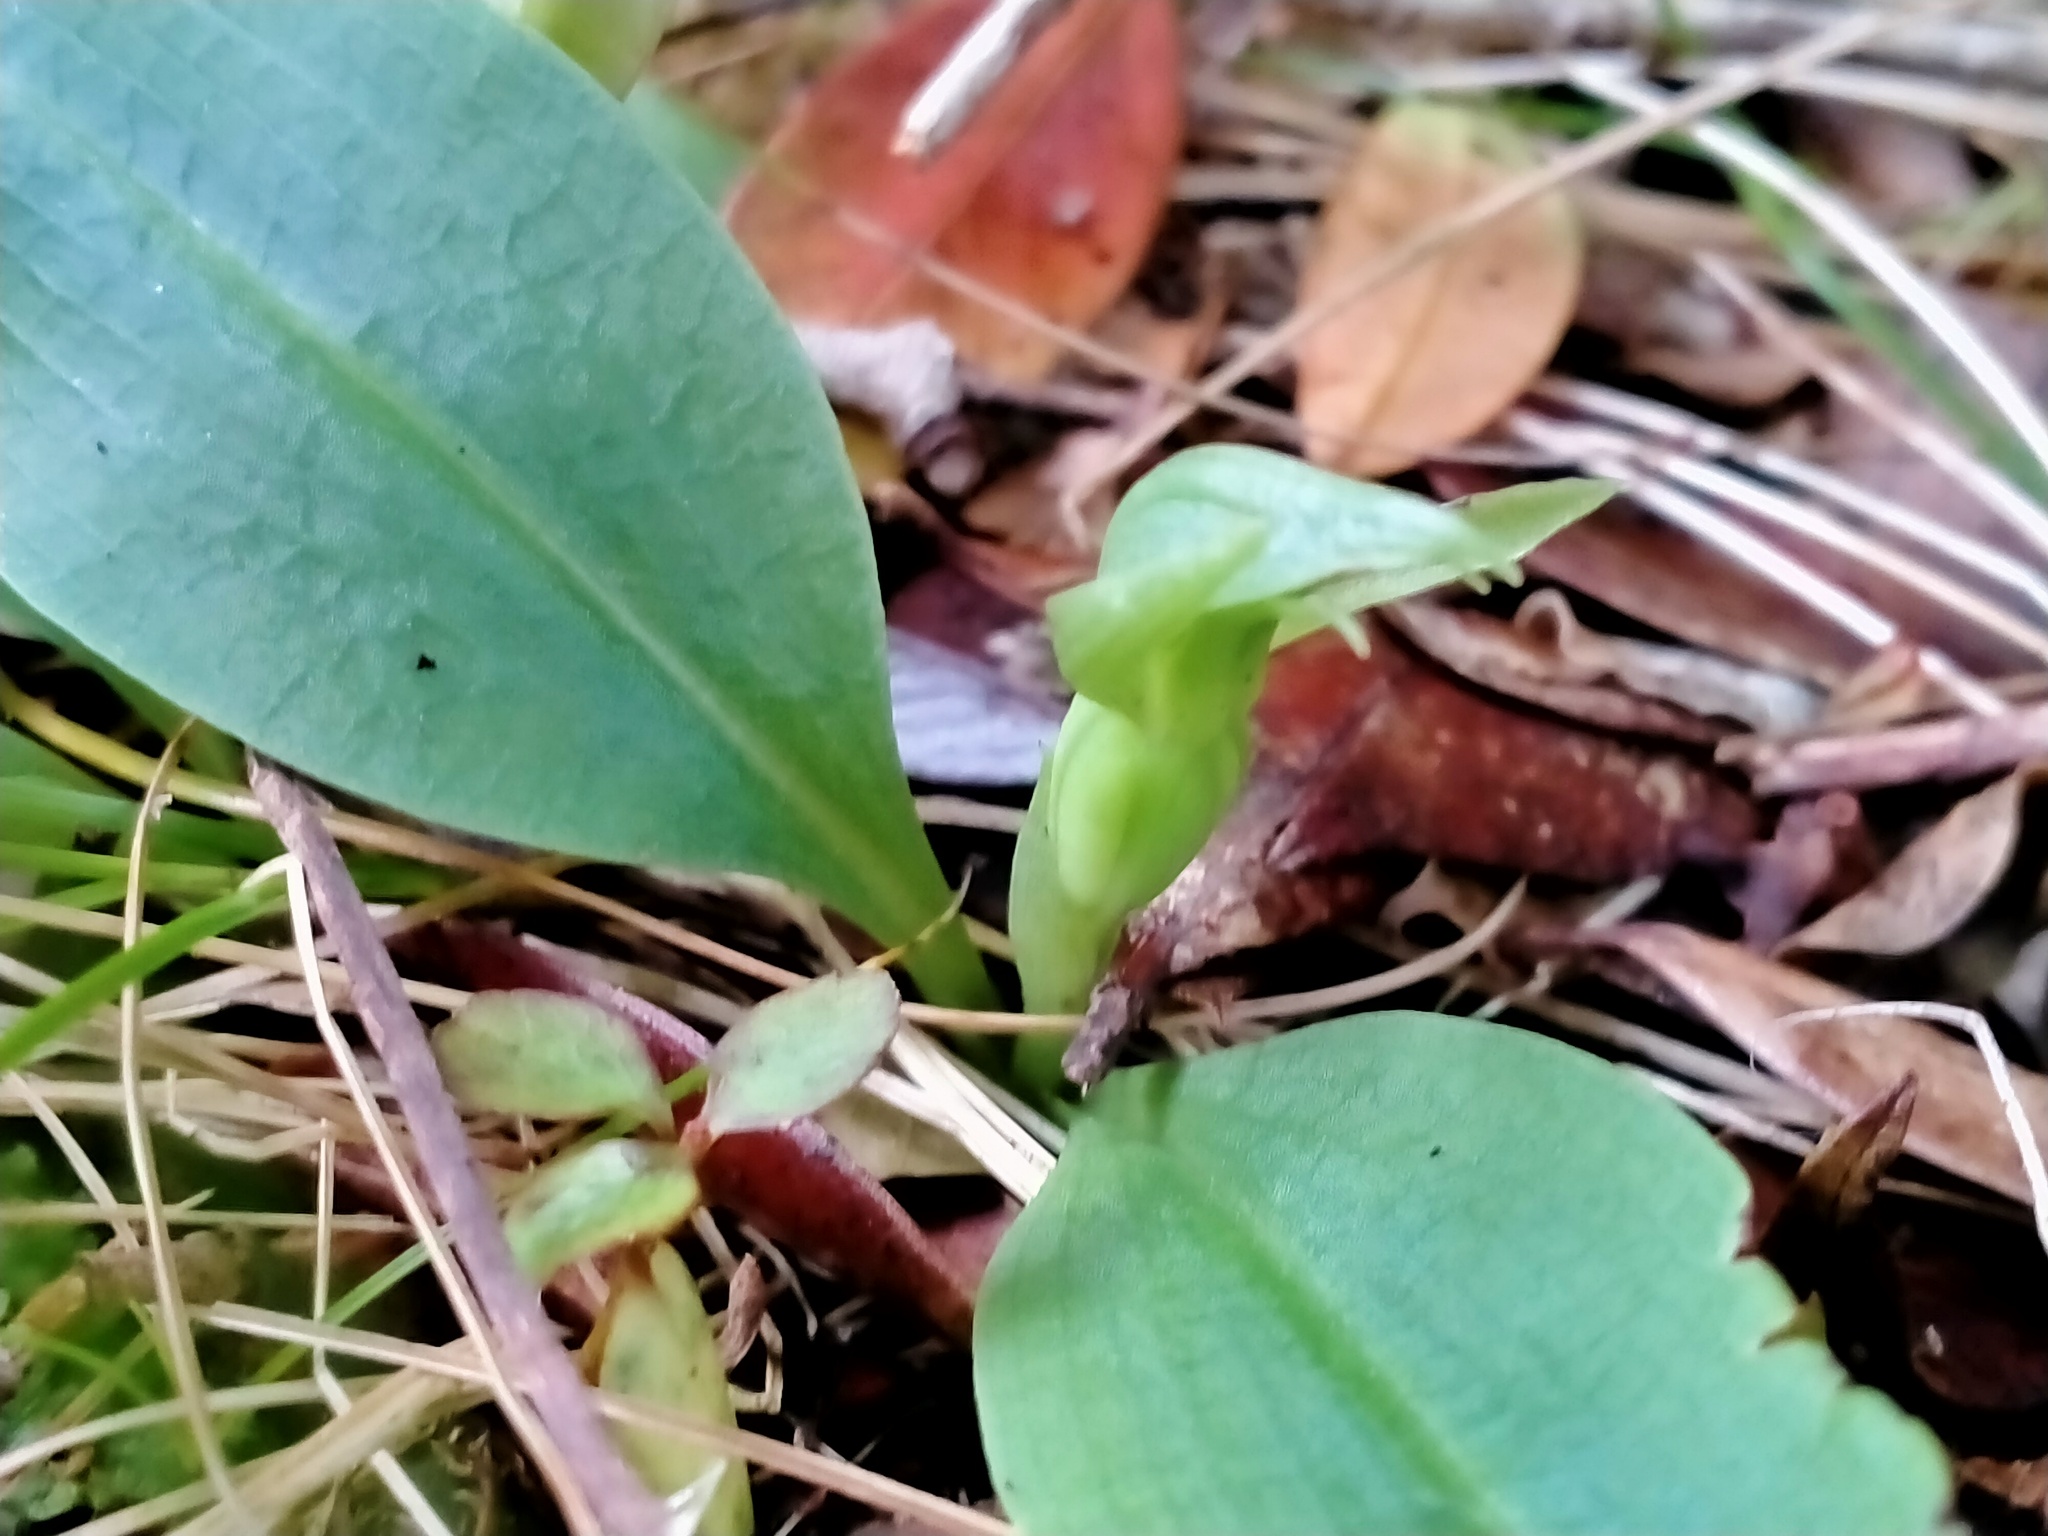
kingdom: Plantae
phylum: Tracheophyta
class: Liliopsida
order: Asparagales
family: Orchidaceae
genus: Chiloglottis
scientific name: Chiloglottis cornuta
